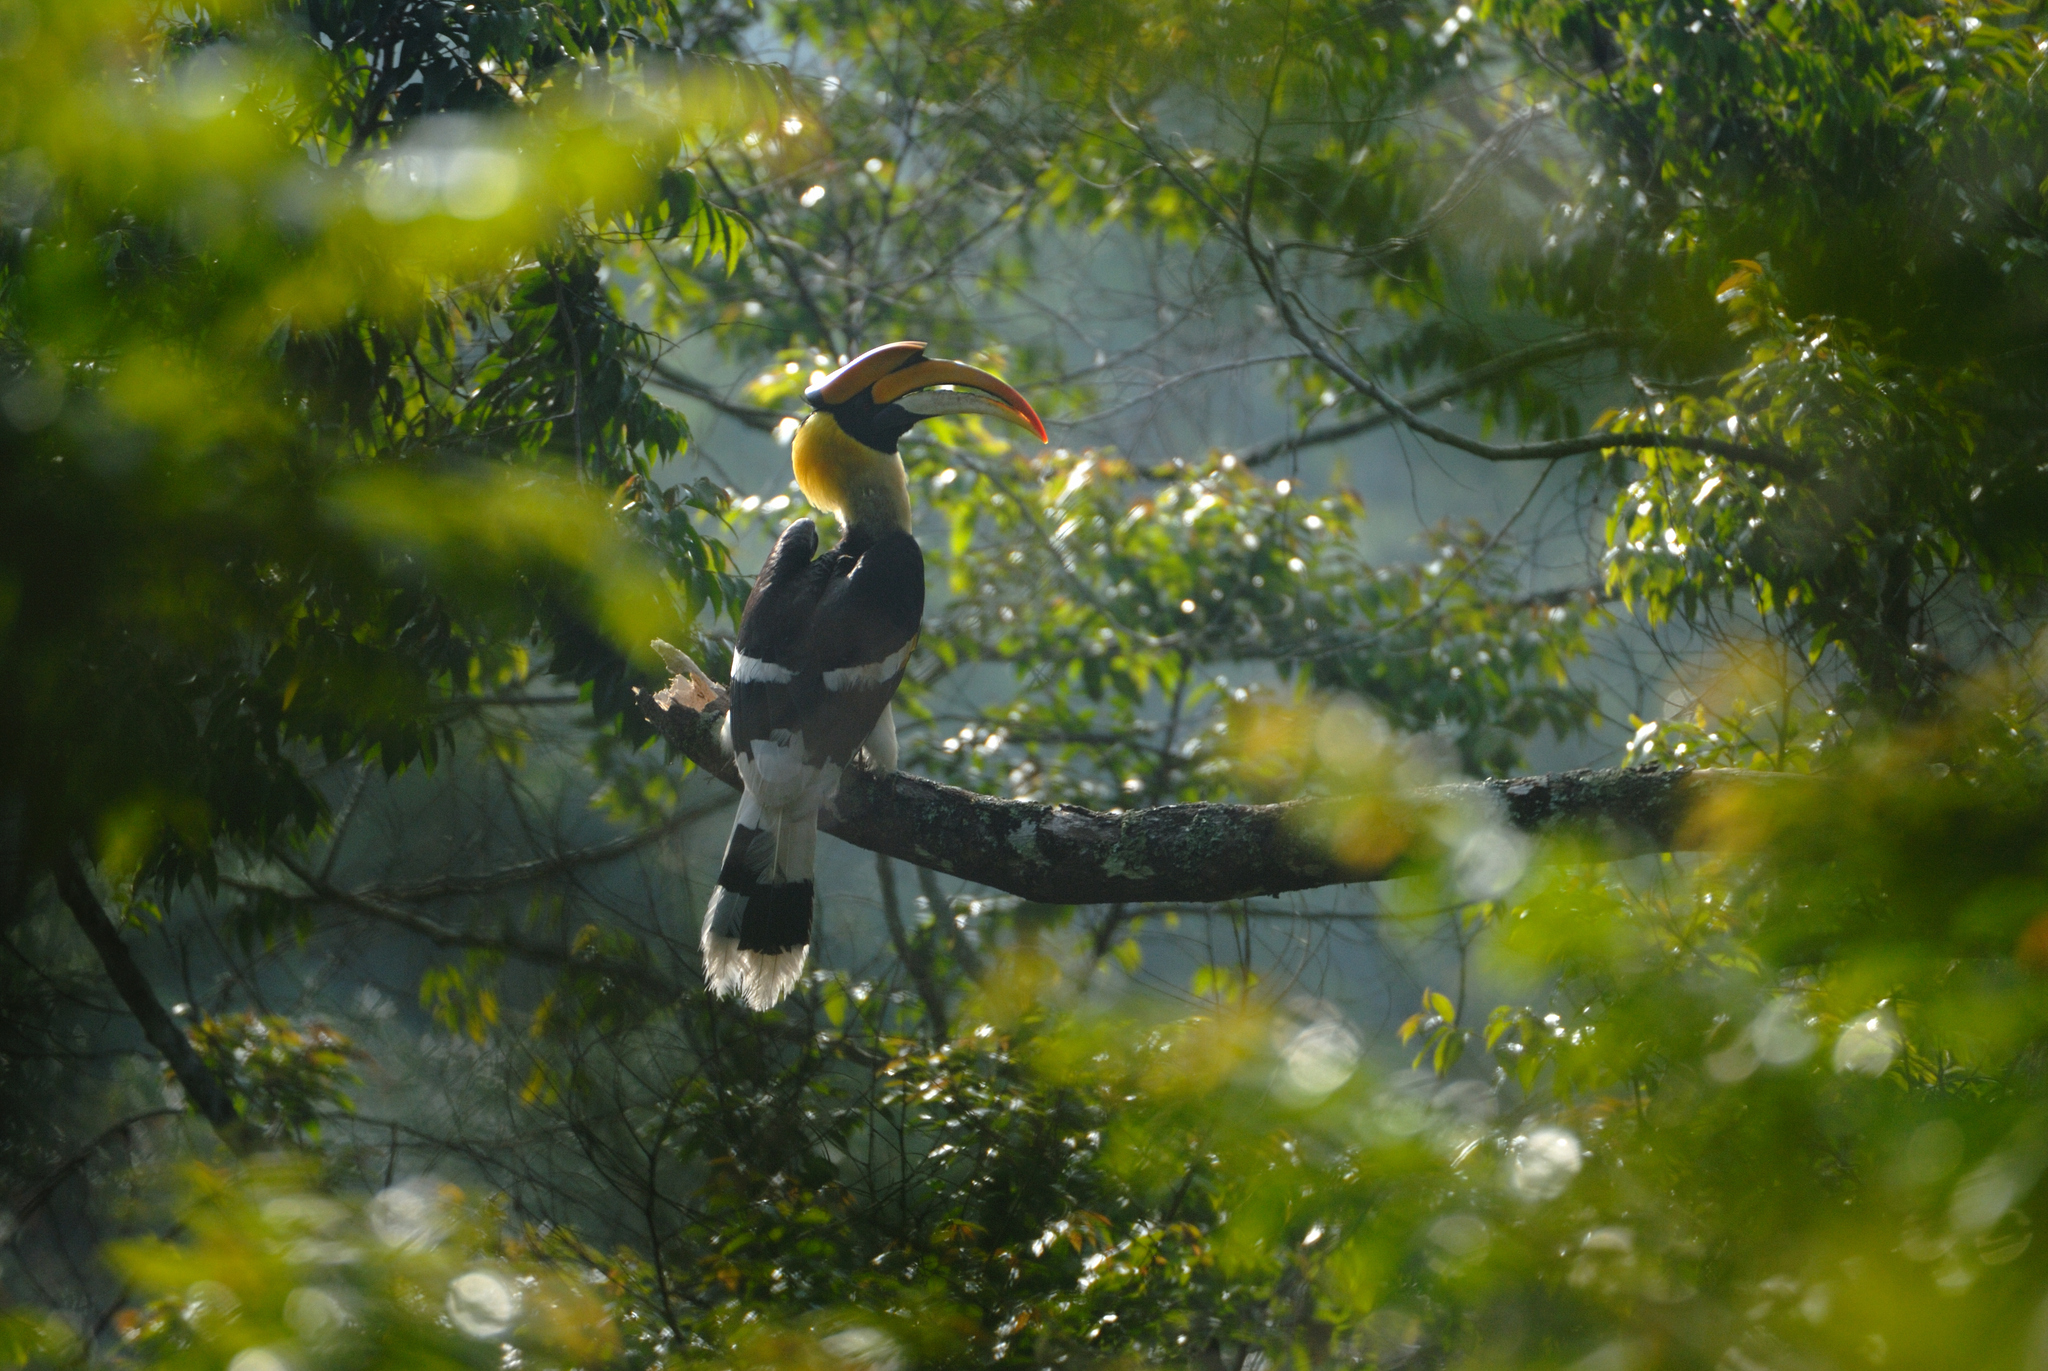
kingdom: Animalia
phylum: Chordata
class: Aves
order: Bucerotiformes
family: Bucerotidae
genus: Buceros
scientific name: Buceros bicornis
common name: Great hornbill
